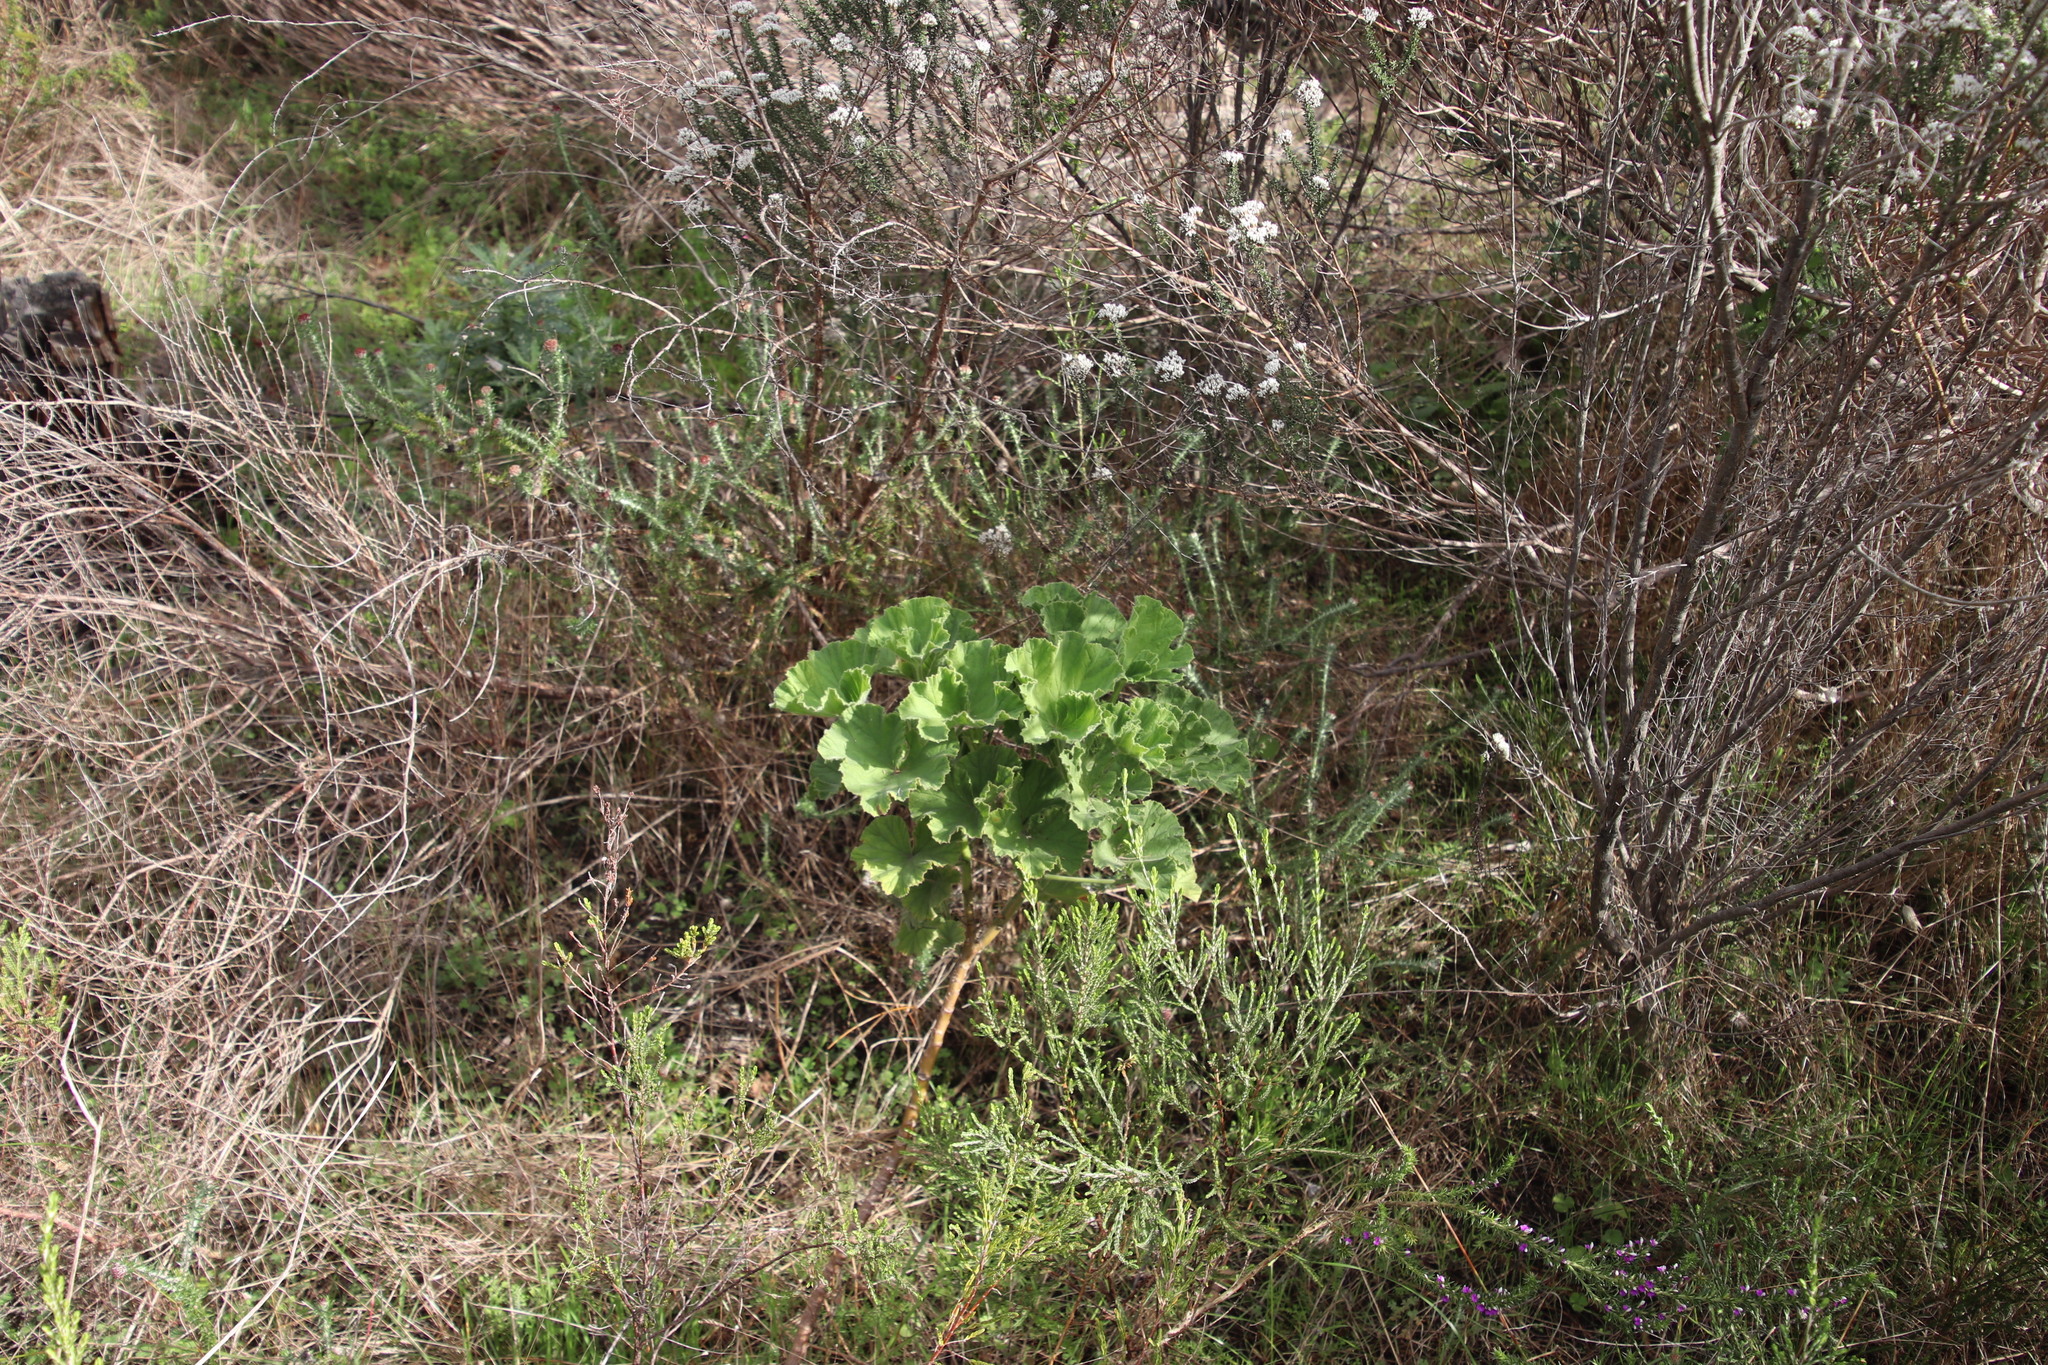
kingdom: Plantae
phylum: Tracheophyta
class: Magnoliopsida
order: Geraniales
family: Geraniaceae
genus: Pelargonium
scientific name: Pelargonium cucullatum
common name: Tree pelargonium
